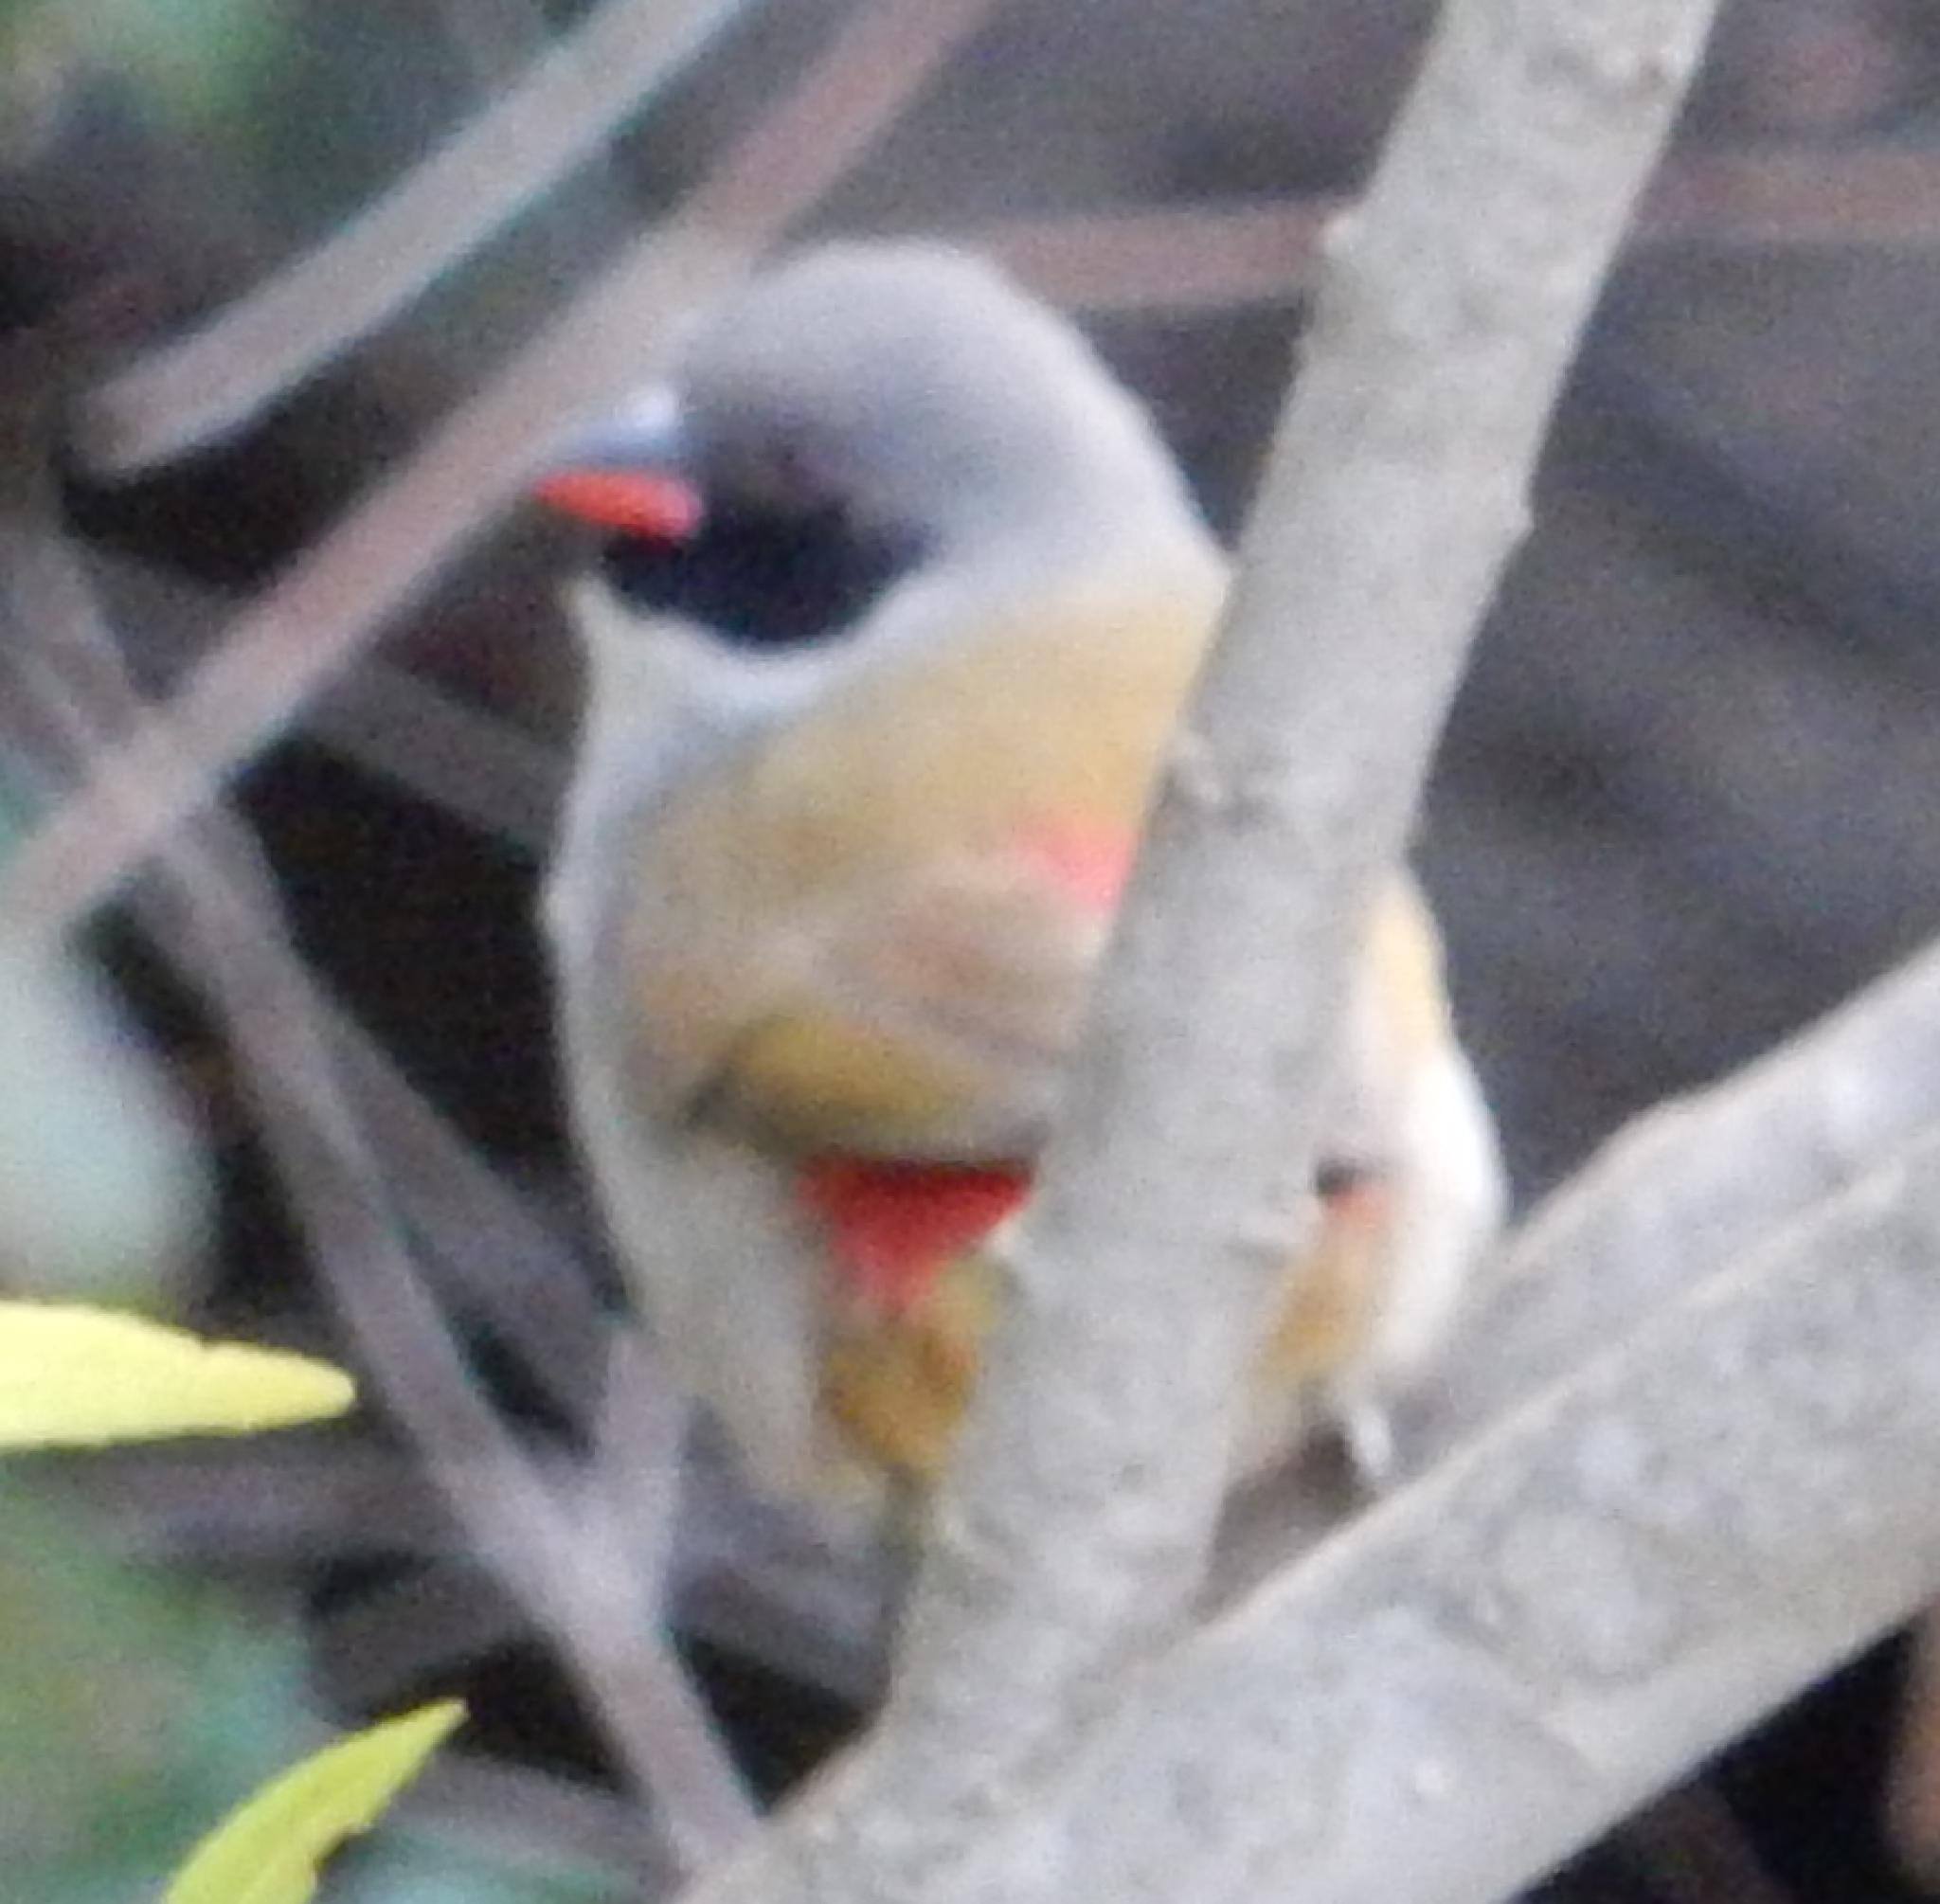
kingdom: Animalia
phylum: Chordata
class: Aves
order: Passeriformes
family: Estrildidae
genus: Coccopygia
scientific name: Coccopygia melanotis
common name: Swee waxbill
